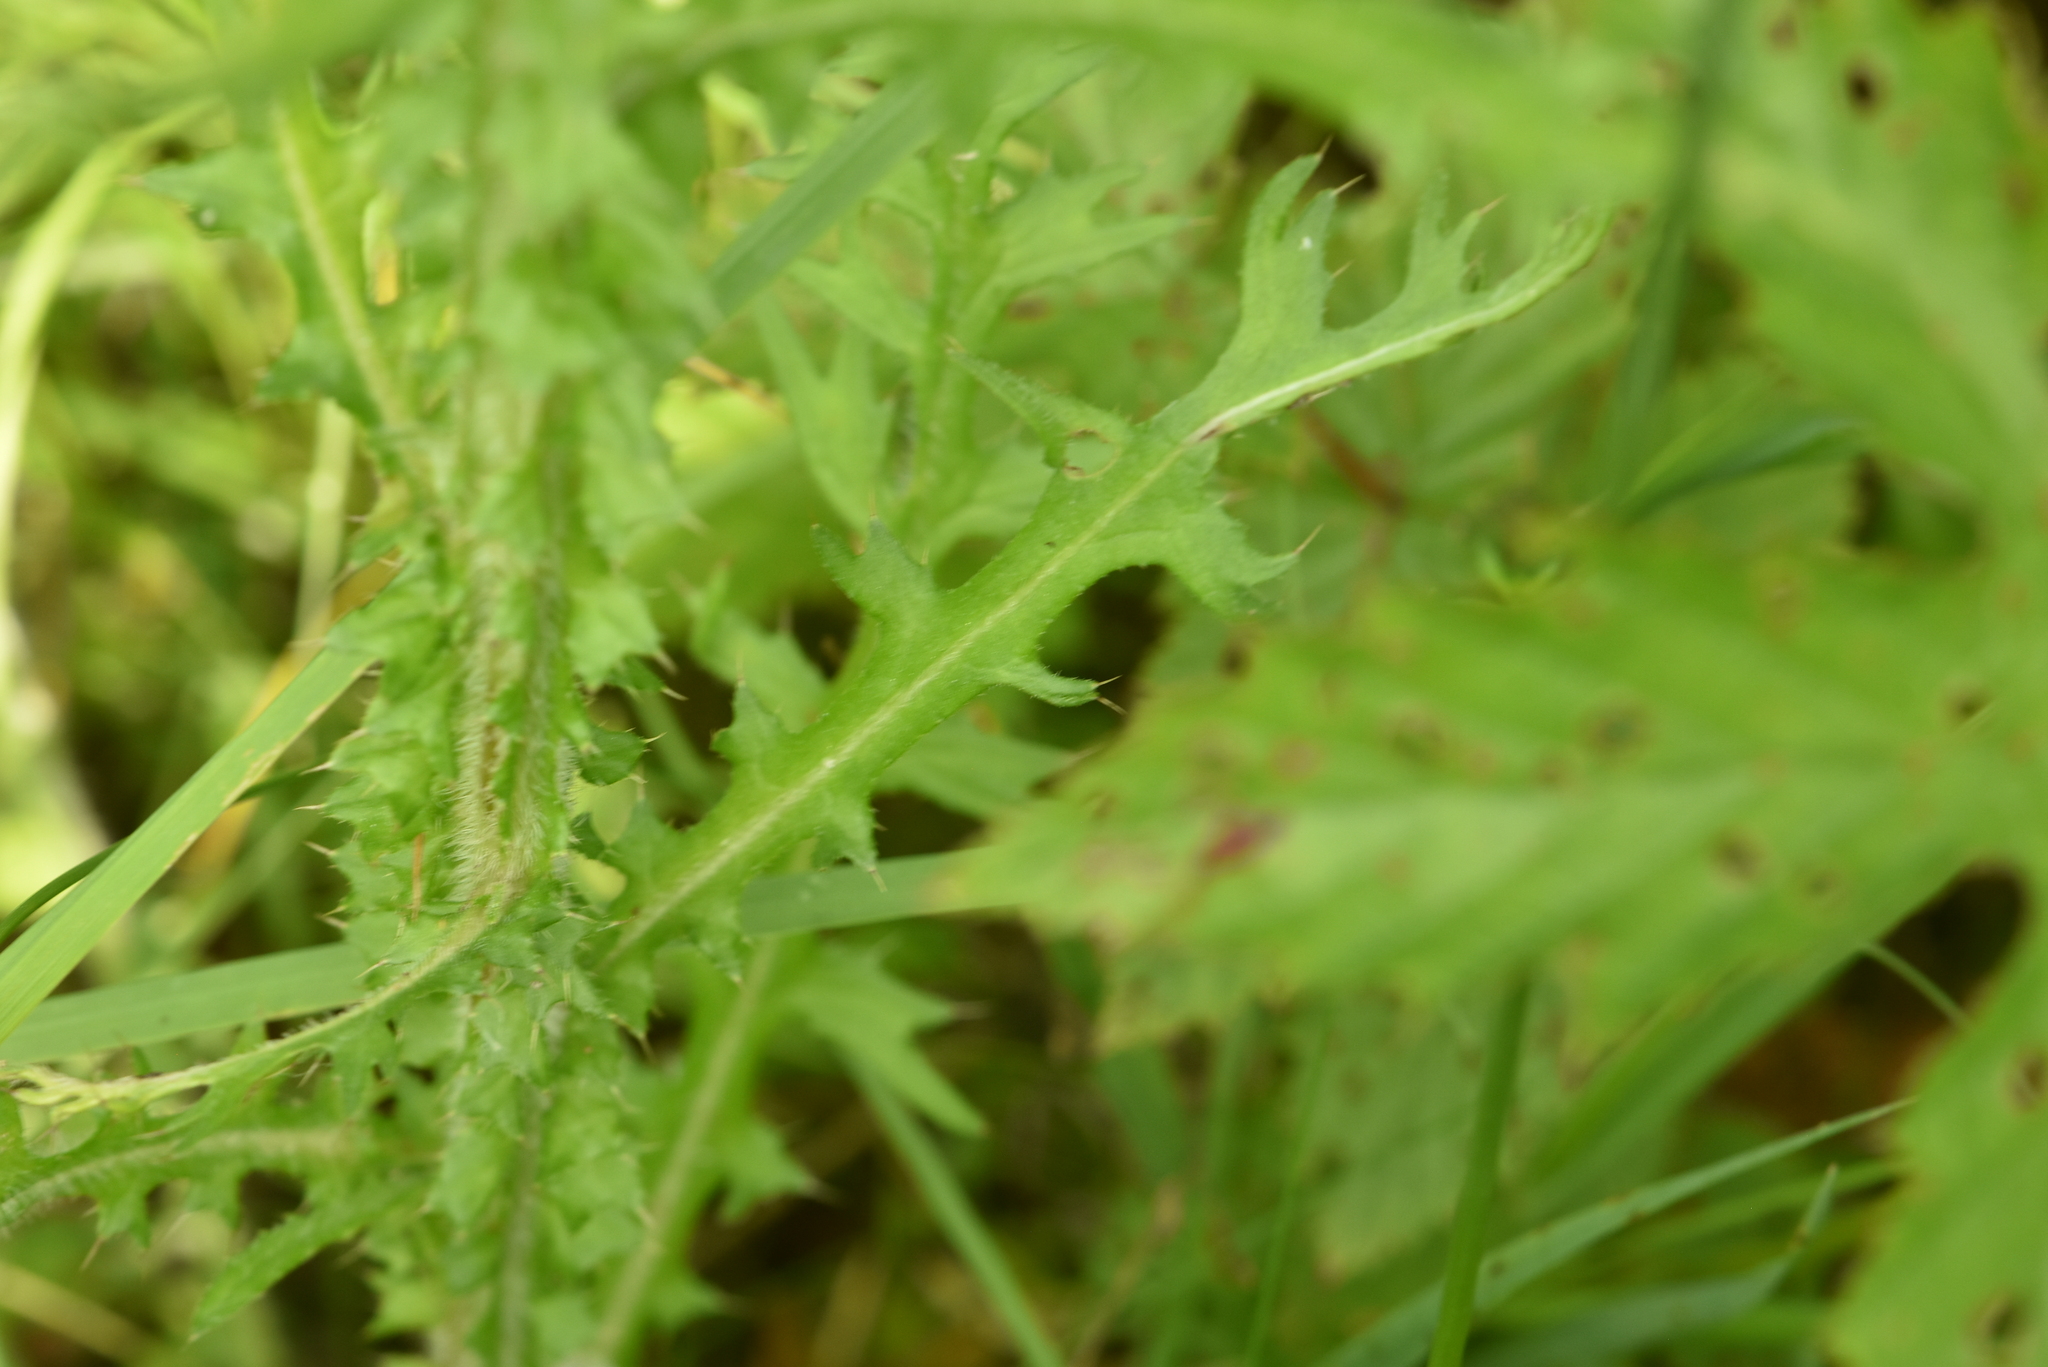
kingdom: Plantae
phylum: Tracheophyta
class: Magnoliopsida
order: Asterales
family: Asteraceae
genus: Cirsium
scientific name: Cirsium palustre
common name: Marsh thistle
